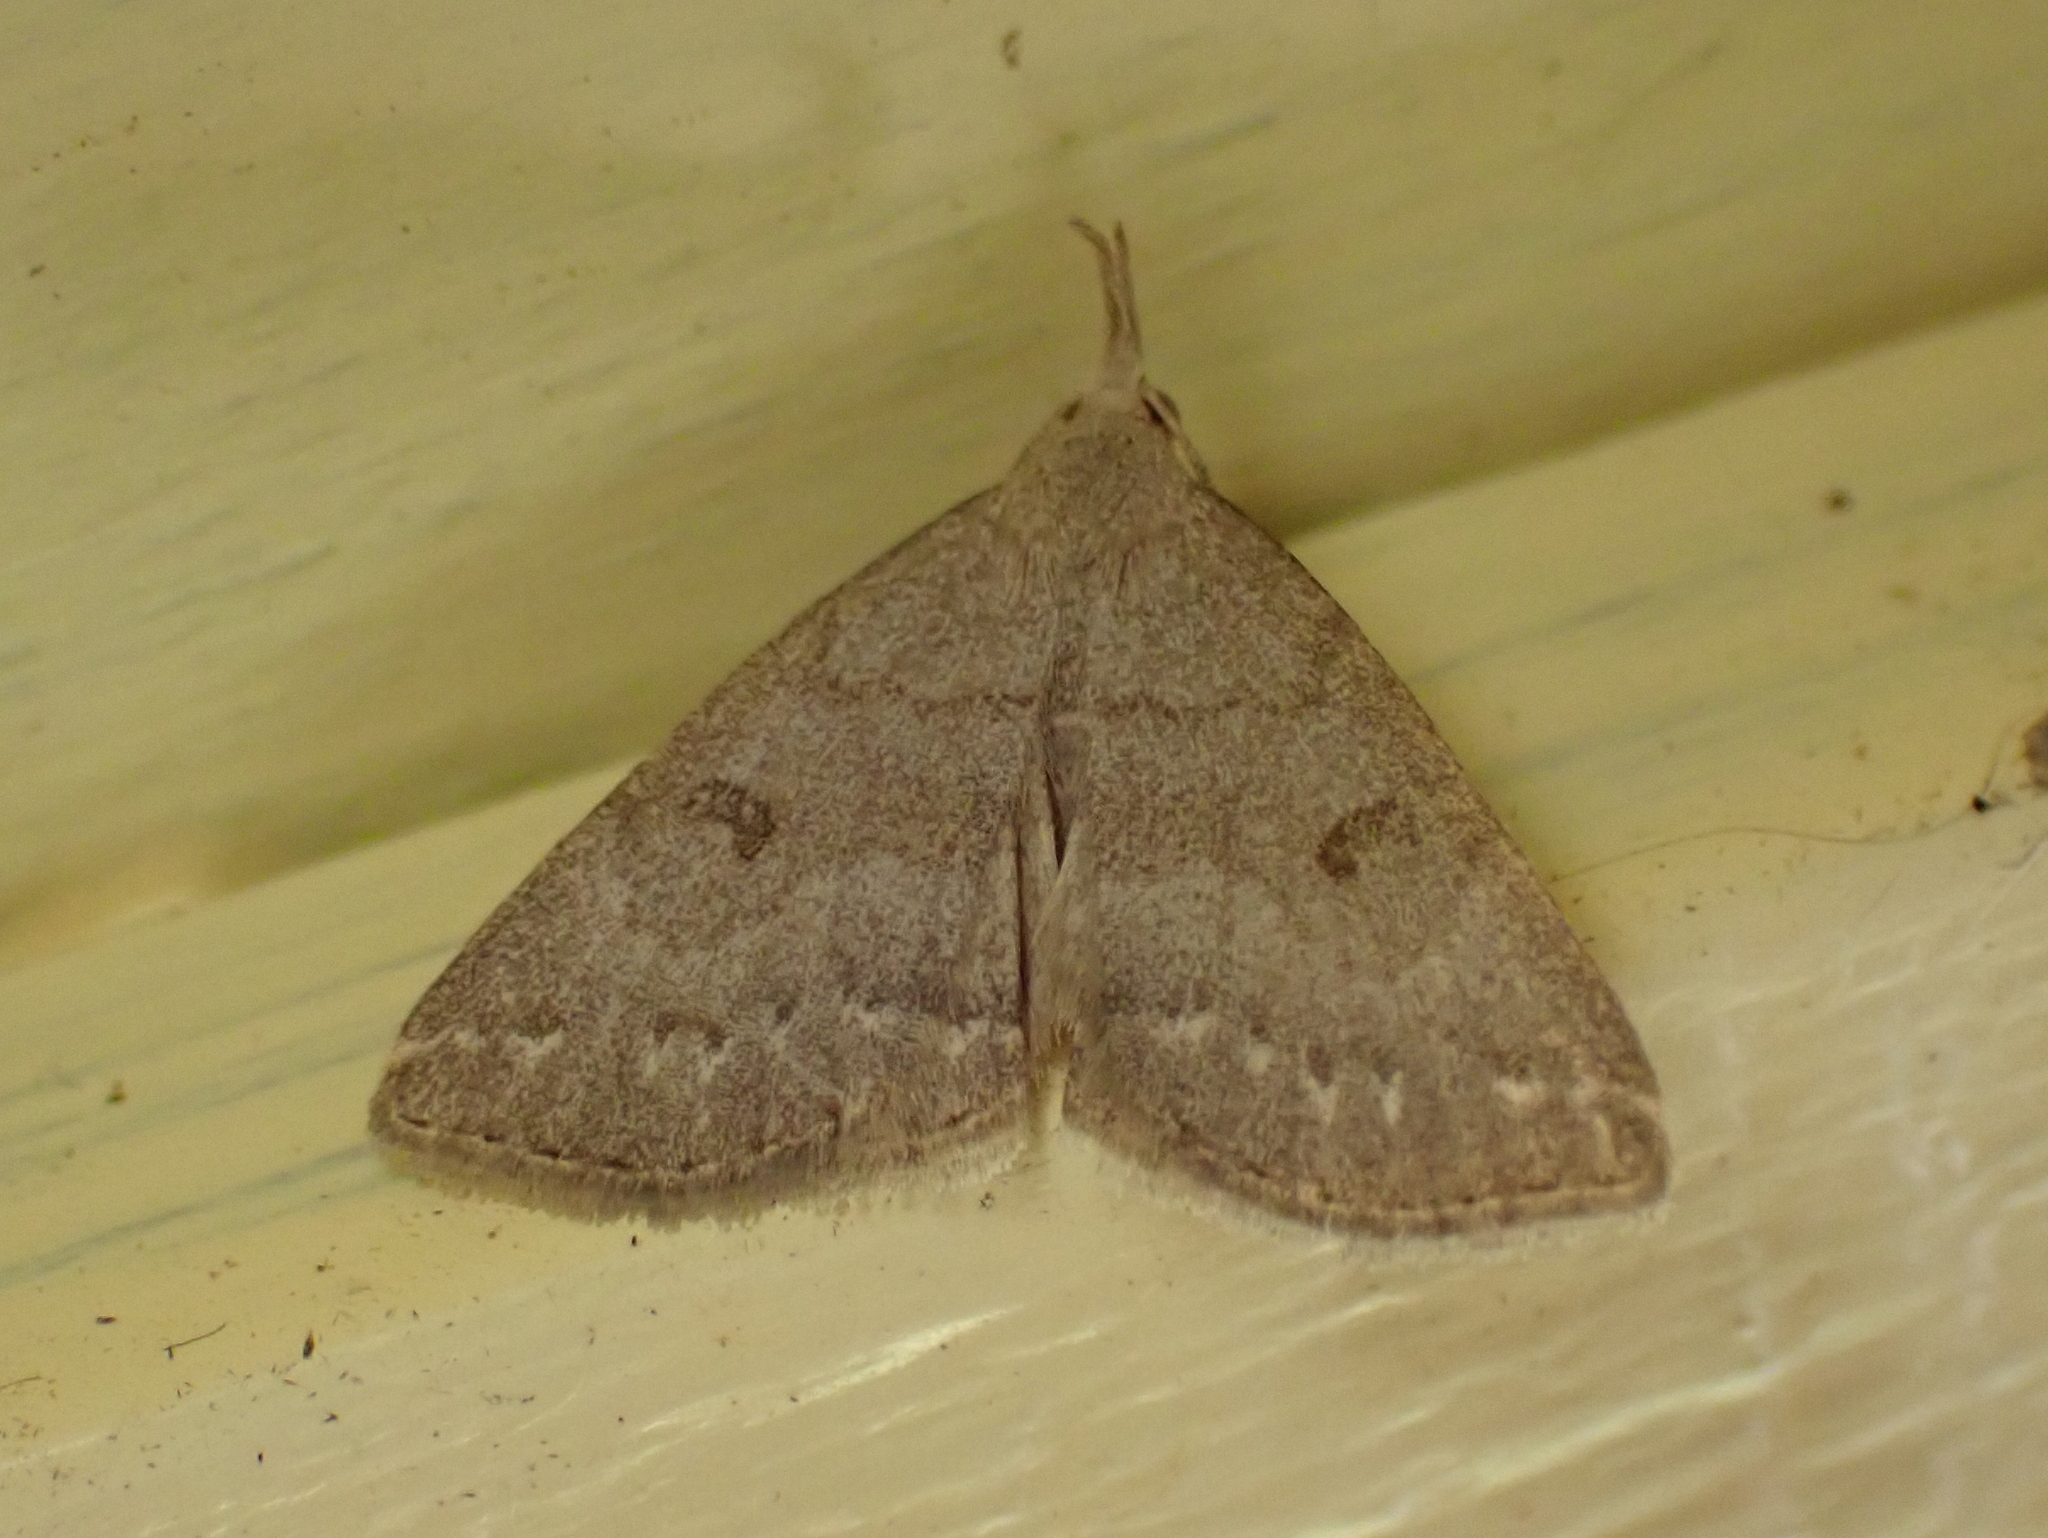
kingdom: Animalia
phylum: Arthropoda
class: Insecta
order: Lepidoptera
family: Erebidae
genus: Macrochilo
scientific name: Macrochilo morbidalis
